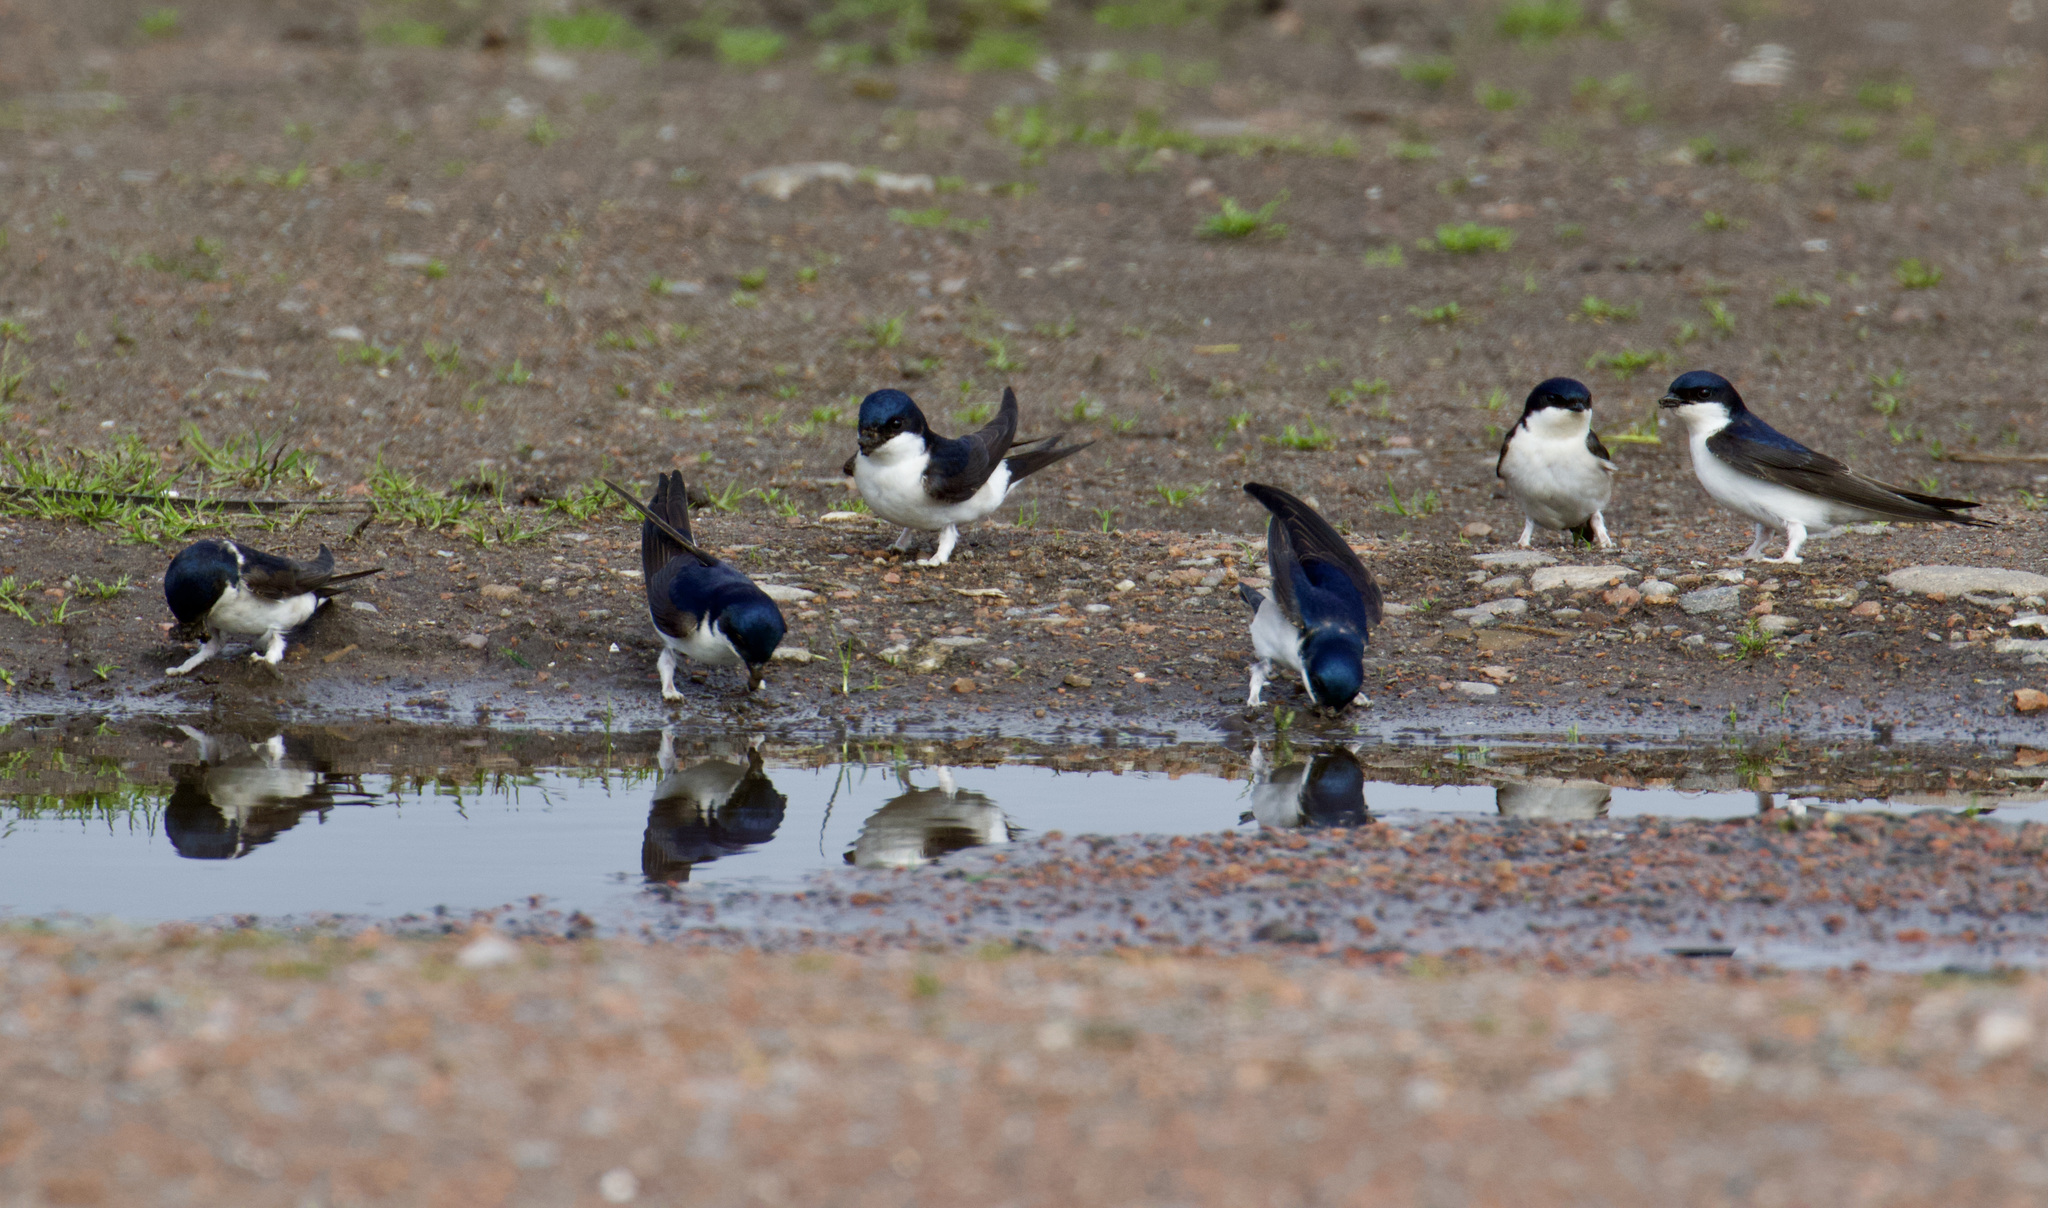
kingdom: Animalia
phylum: Chordata
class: Aves
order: Passeriformes
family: Hirundinidae
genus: Delichon
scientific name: Delichon urbicum
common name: Common house martin
